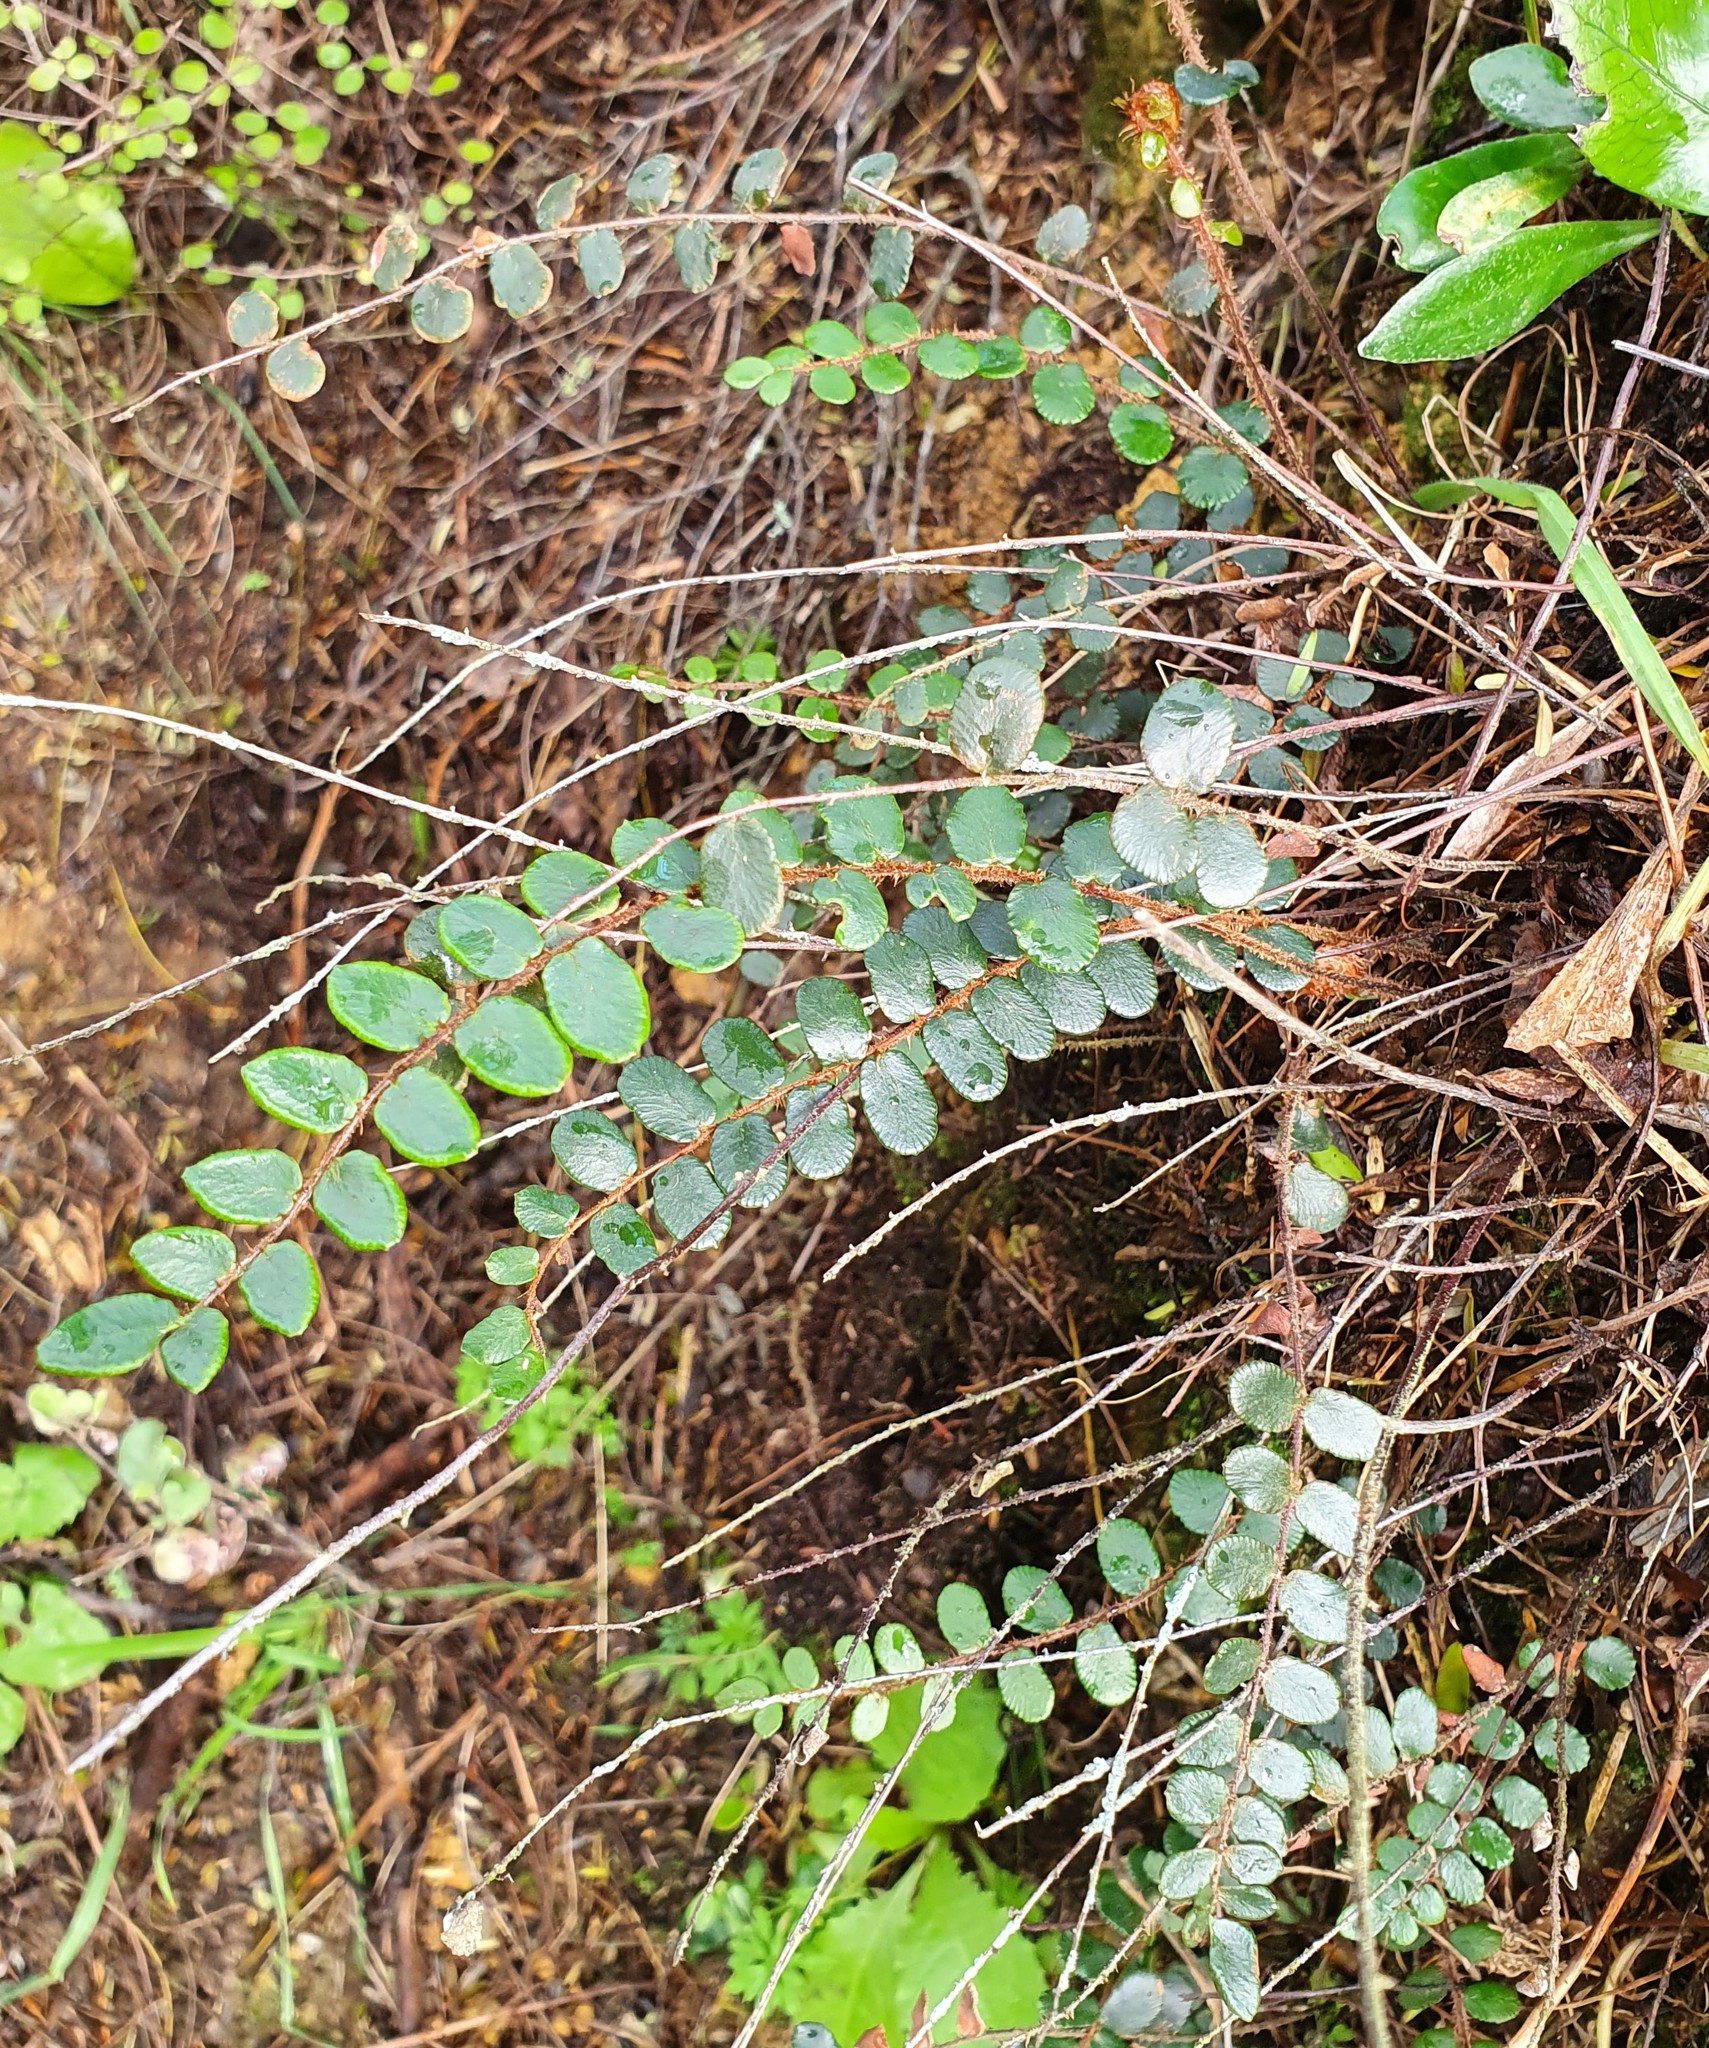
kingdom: Plantae
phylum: Tracheophyta
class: Polypodiopsida
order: Polypodiales
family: Pteridaceae
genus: Pellaea
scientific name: Pellaea rotundifolia
